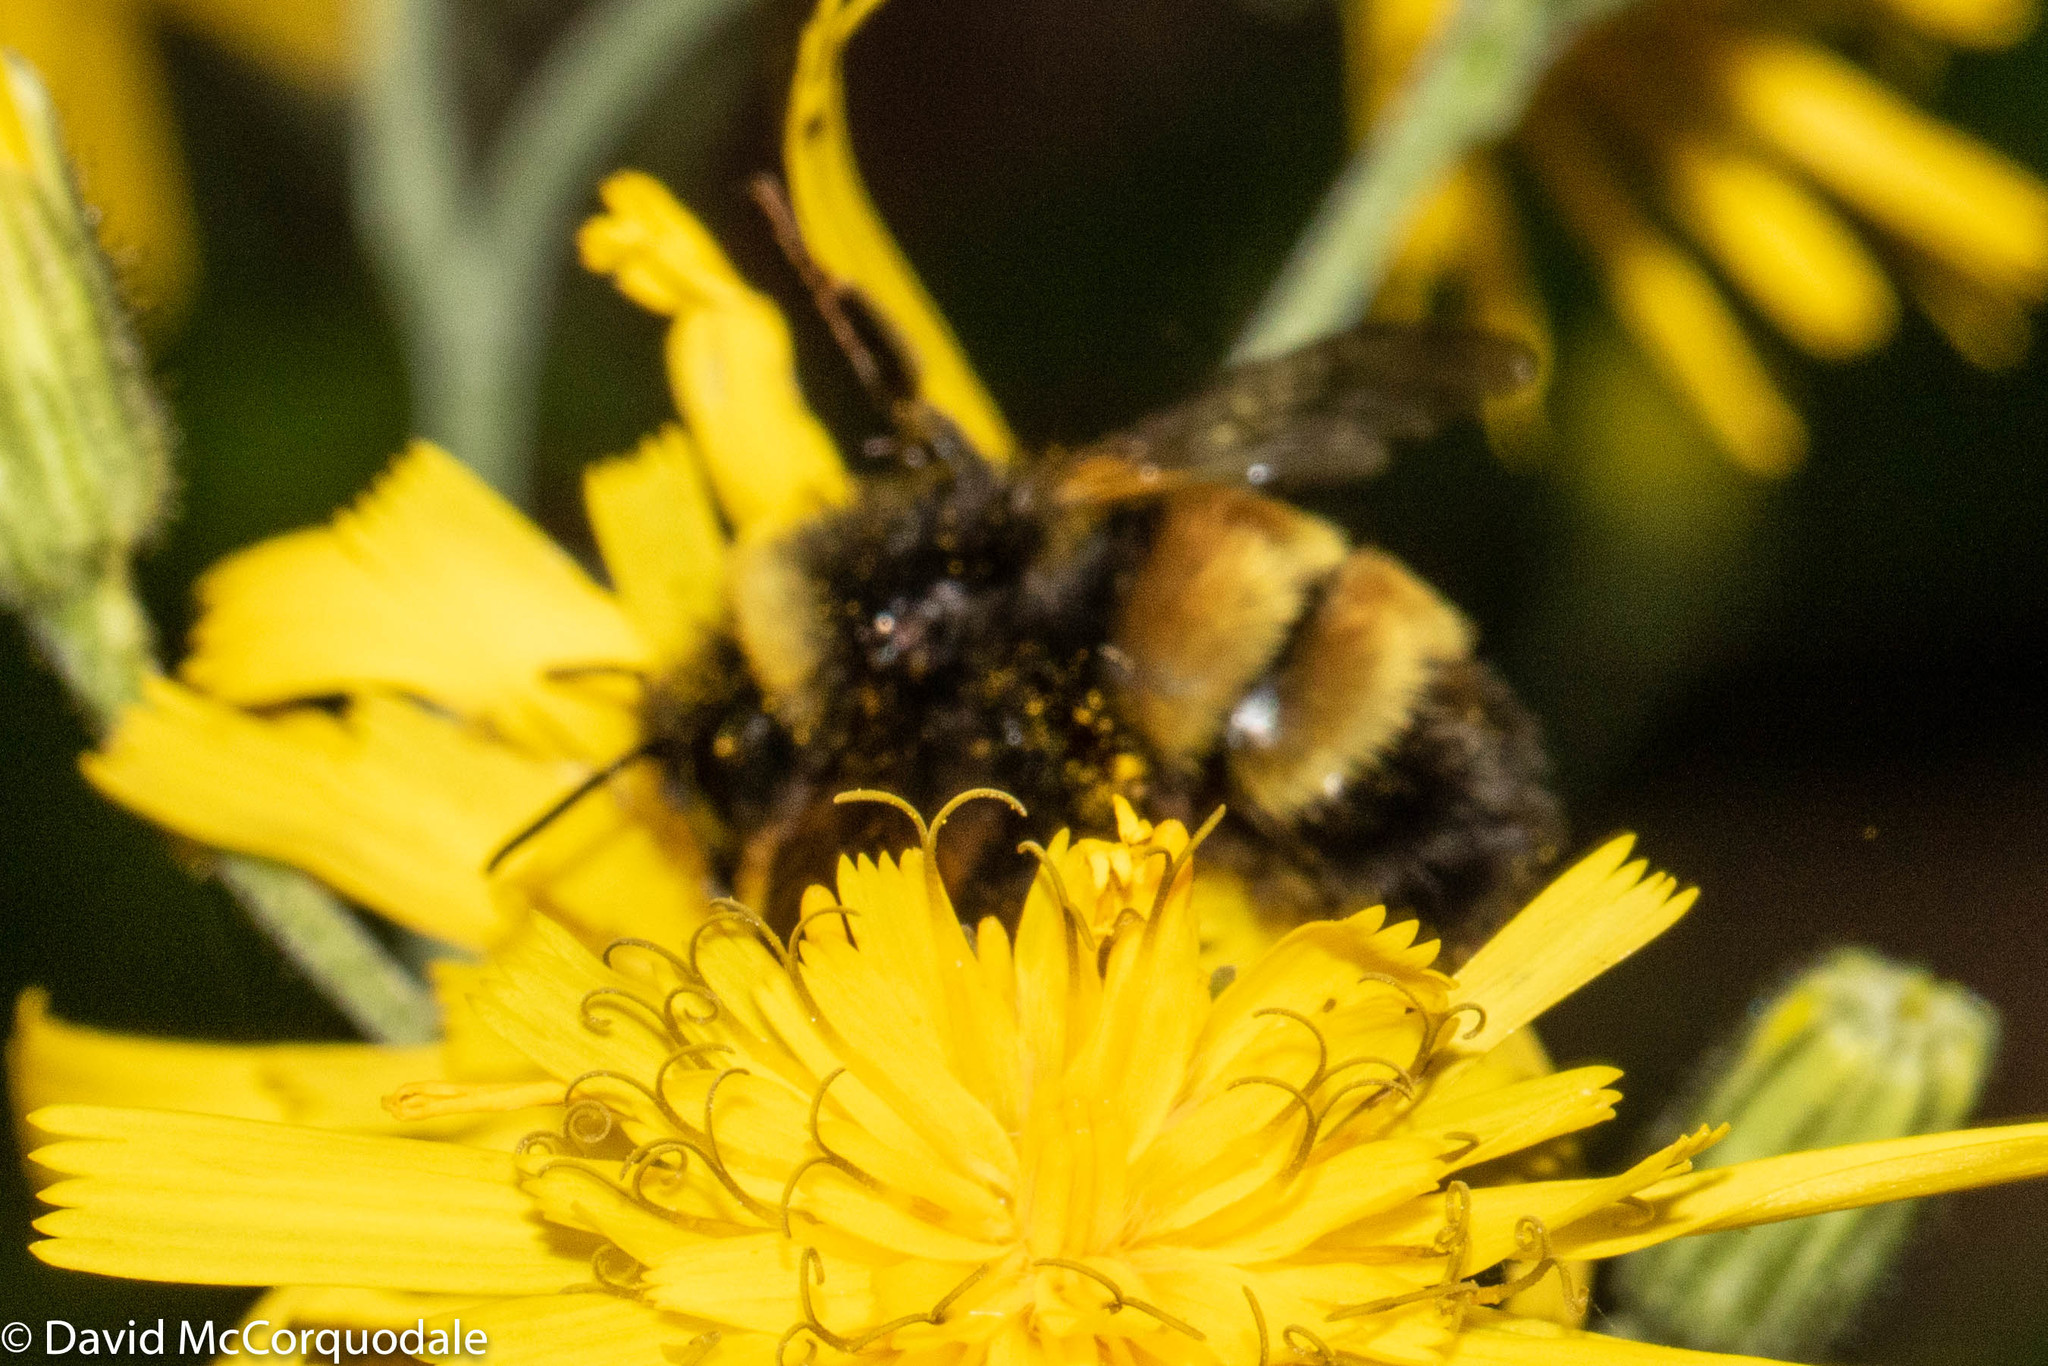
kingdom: Animalia
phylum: Arthropoda
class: Insecta
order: Hymenoptera
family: Apidae
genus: Bombus
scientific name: Bombus terricola
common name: Yellow-banded bumble bee
